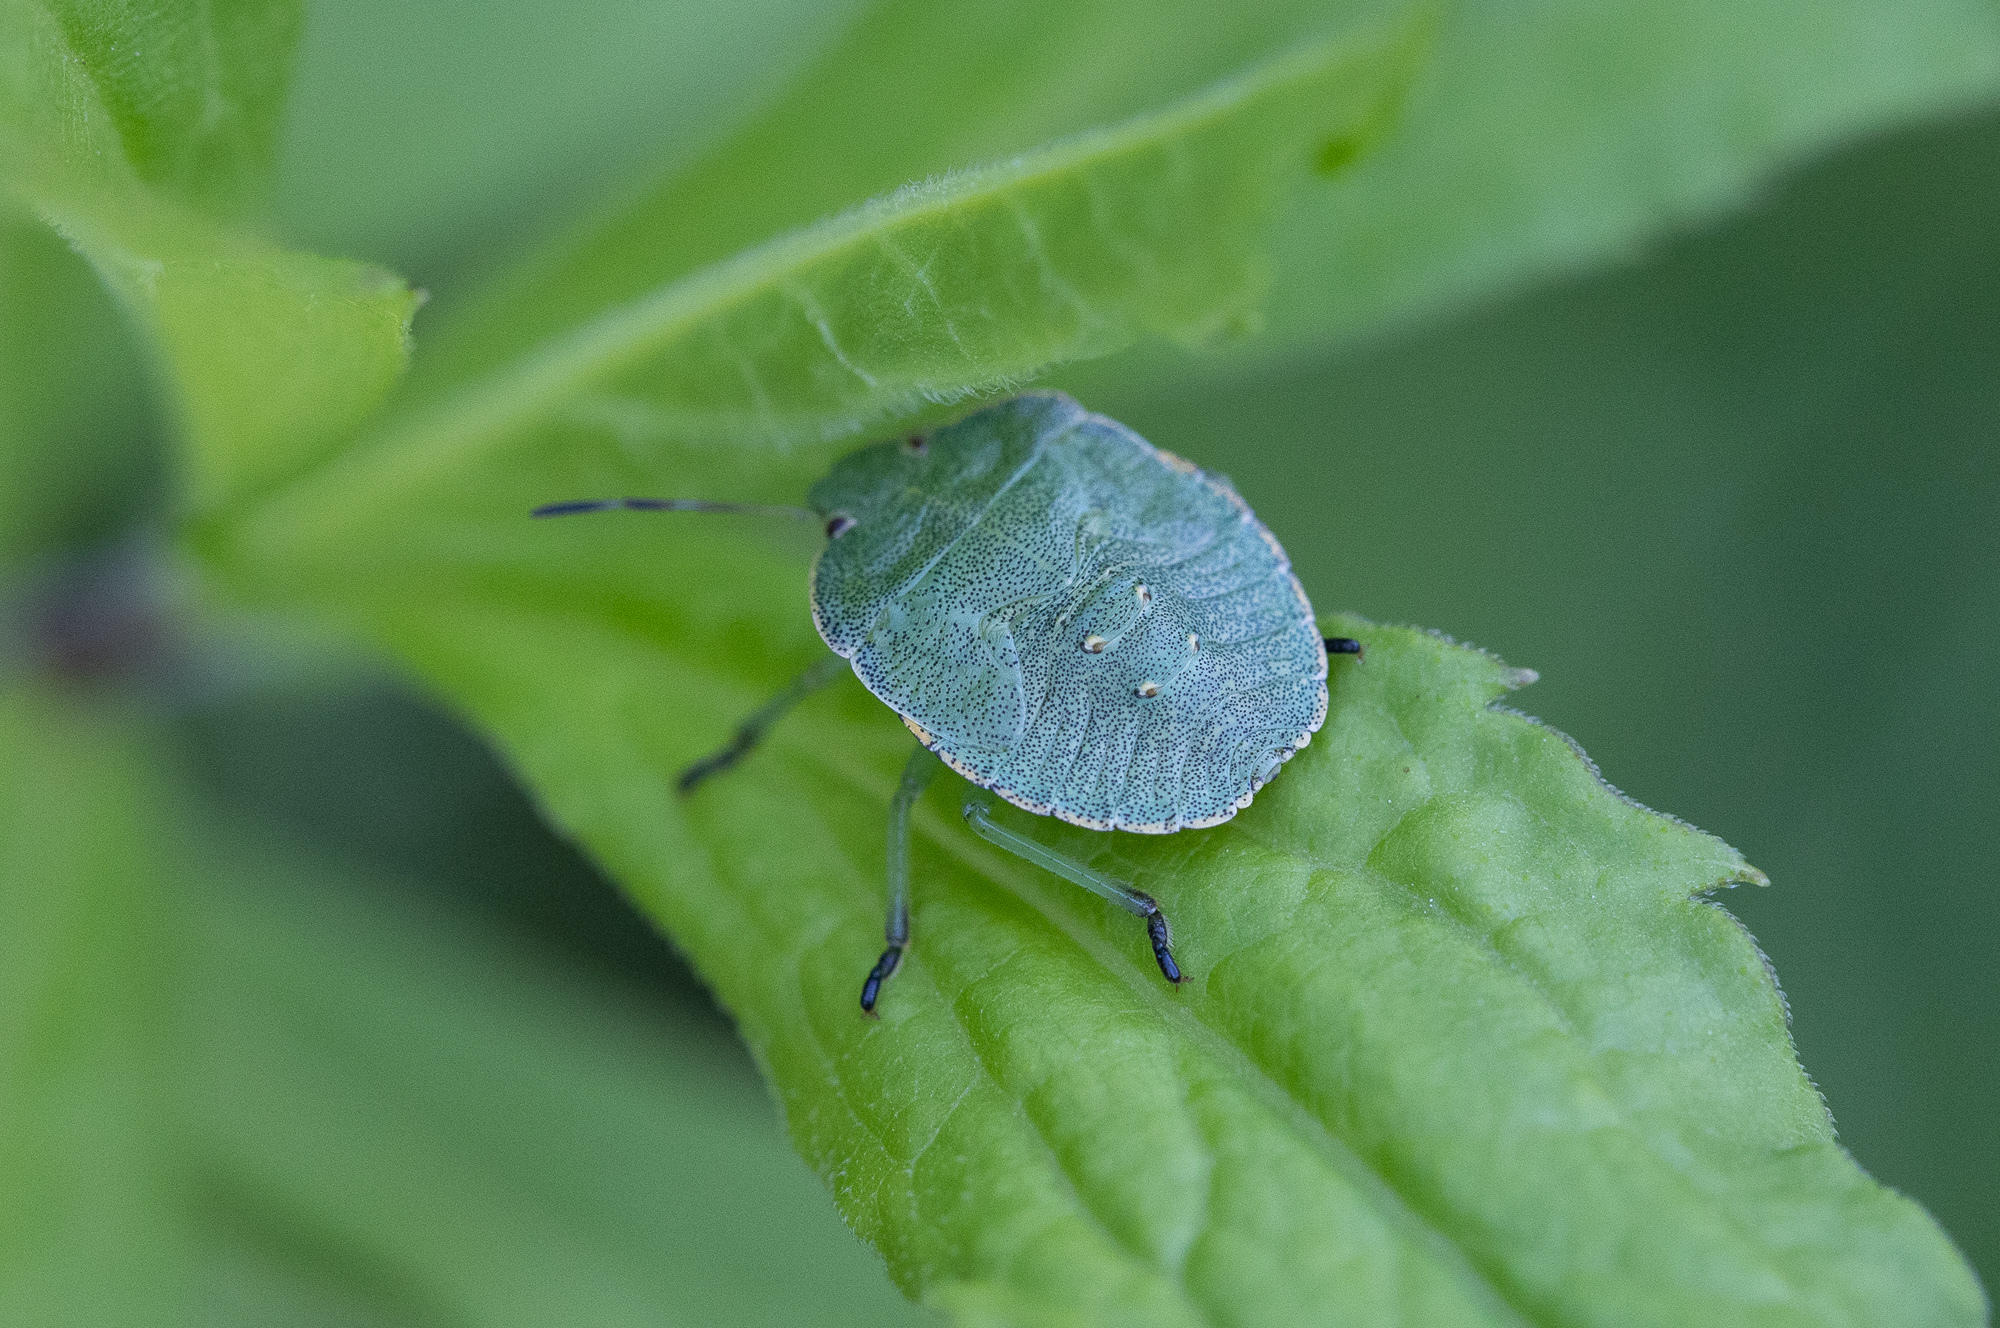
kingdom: Animalia
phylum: Arthropoda
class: Insecta
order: Hemiptera
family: Pentatomidae
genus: Palomena
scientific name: Palomena prasina
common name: Green shieldbug
